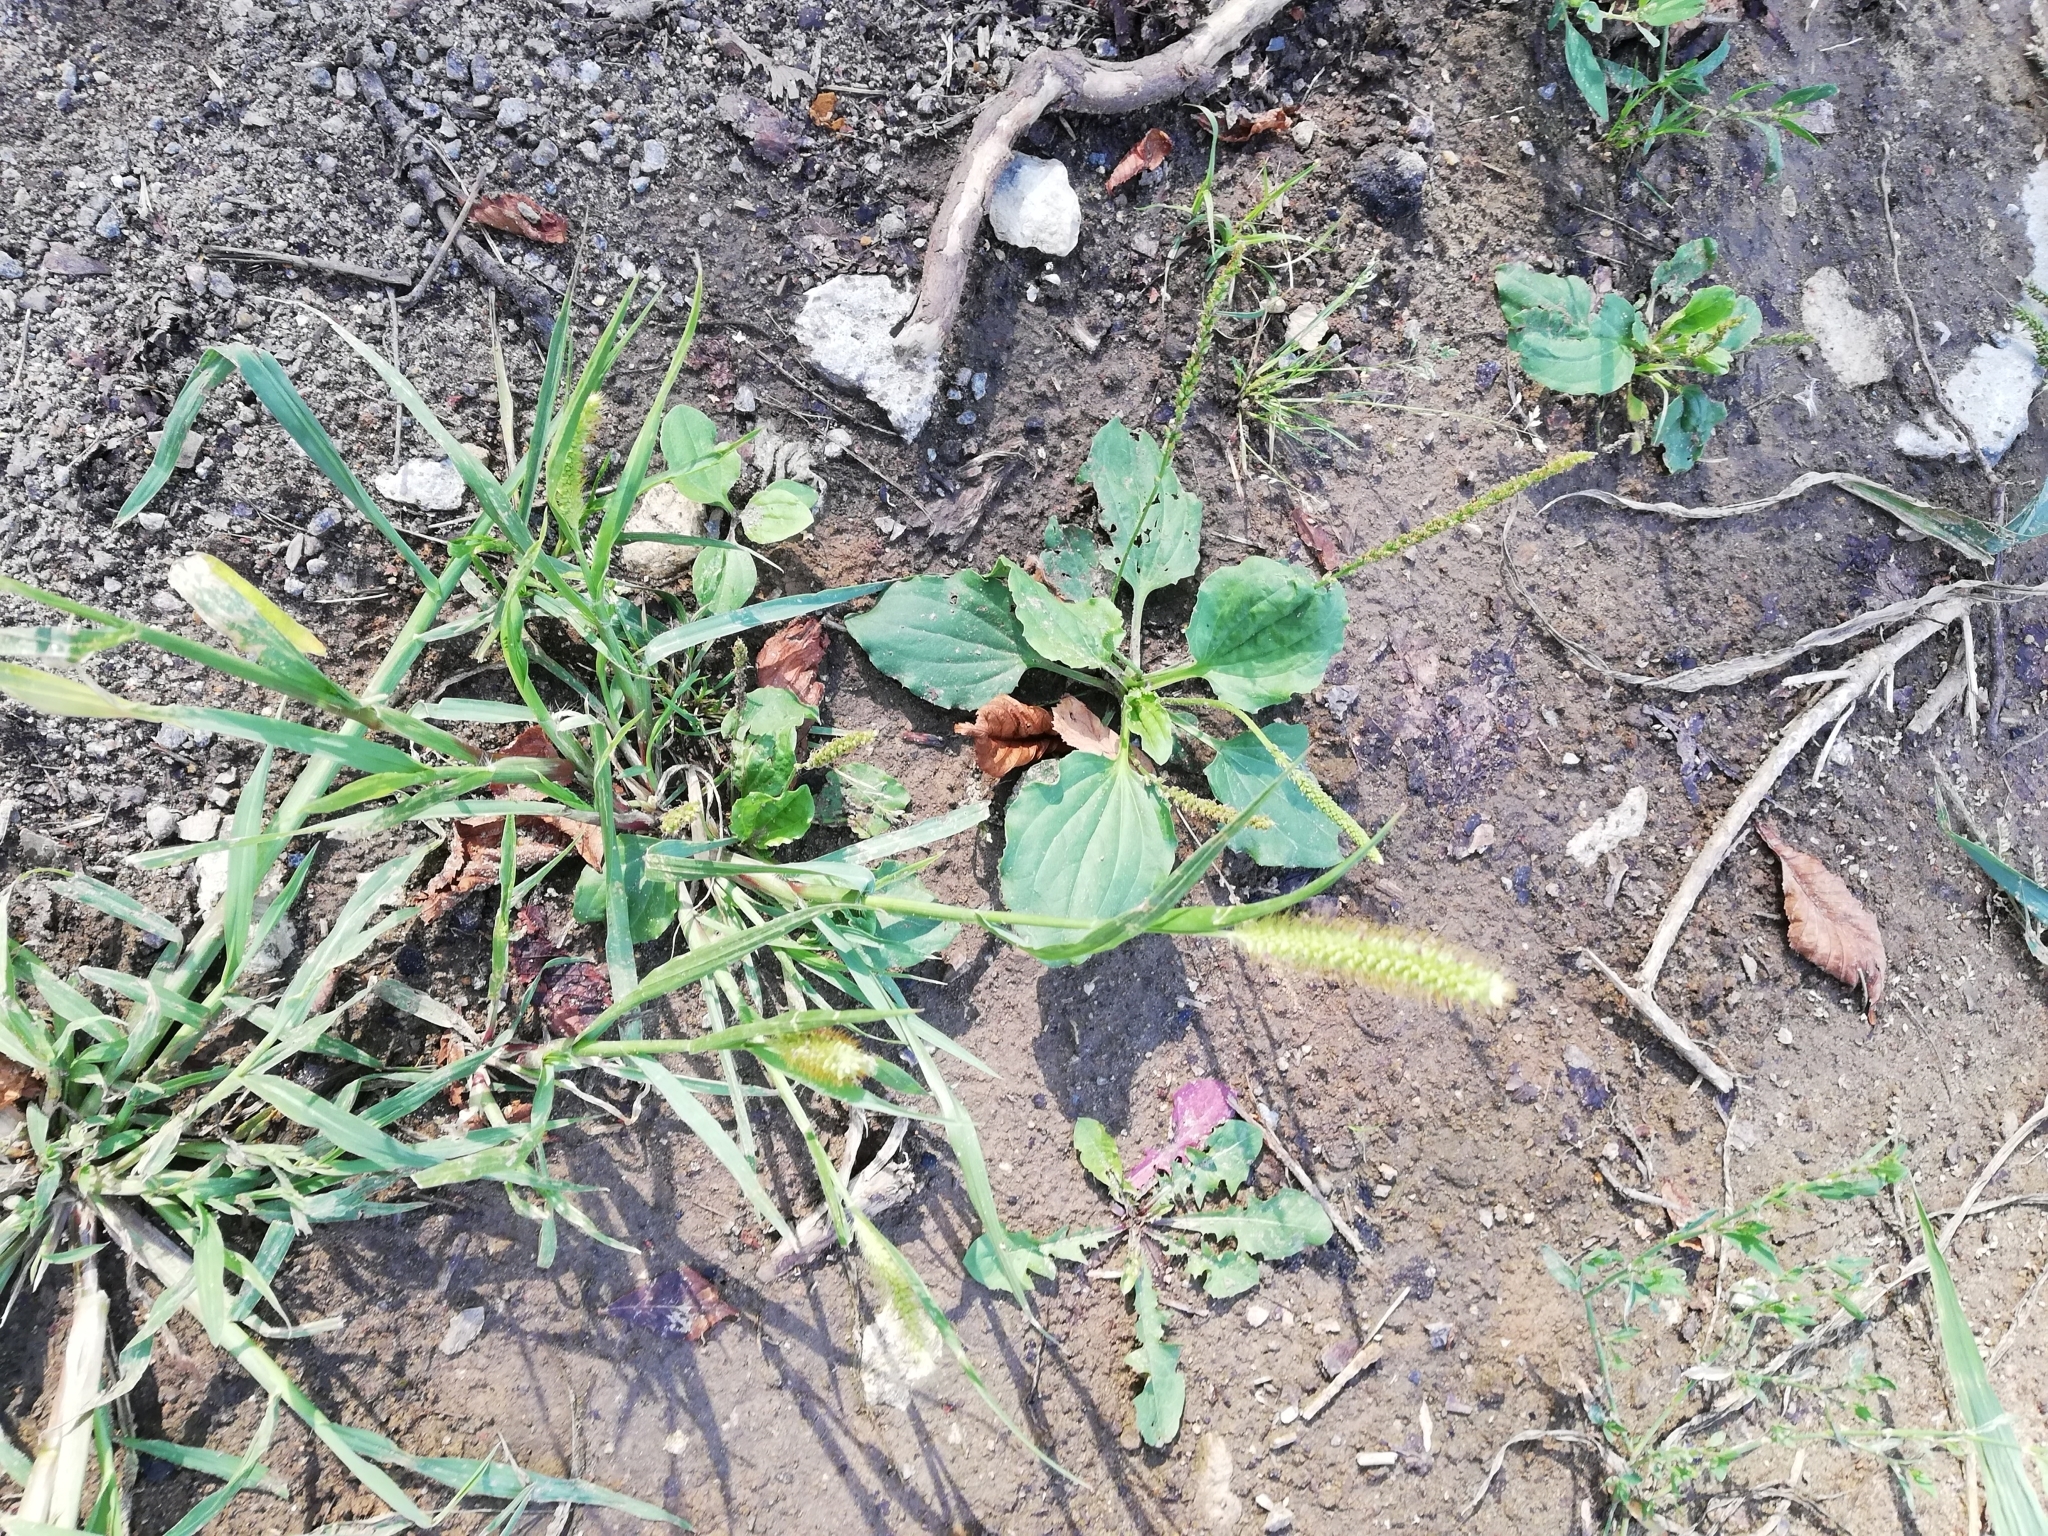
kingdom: Plantae
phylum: Tracheophyta
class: Liliopsida
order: Poales
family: Poaceae
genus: Setaria
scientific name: Setaria pumila
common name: Yellow bristle-grass
